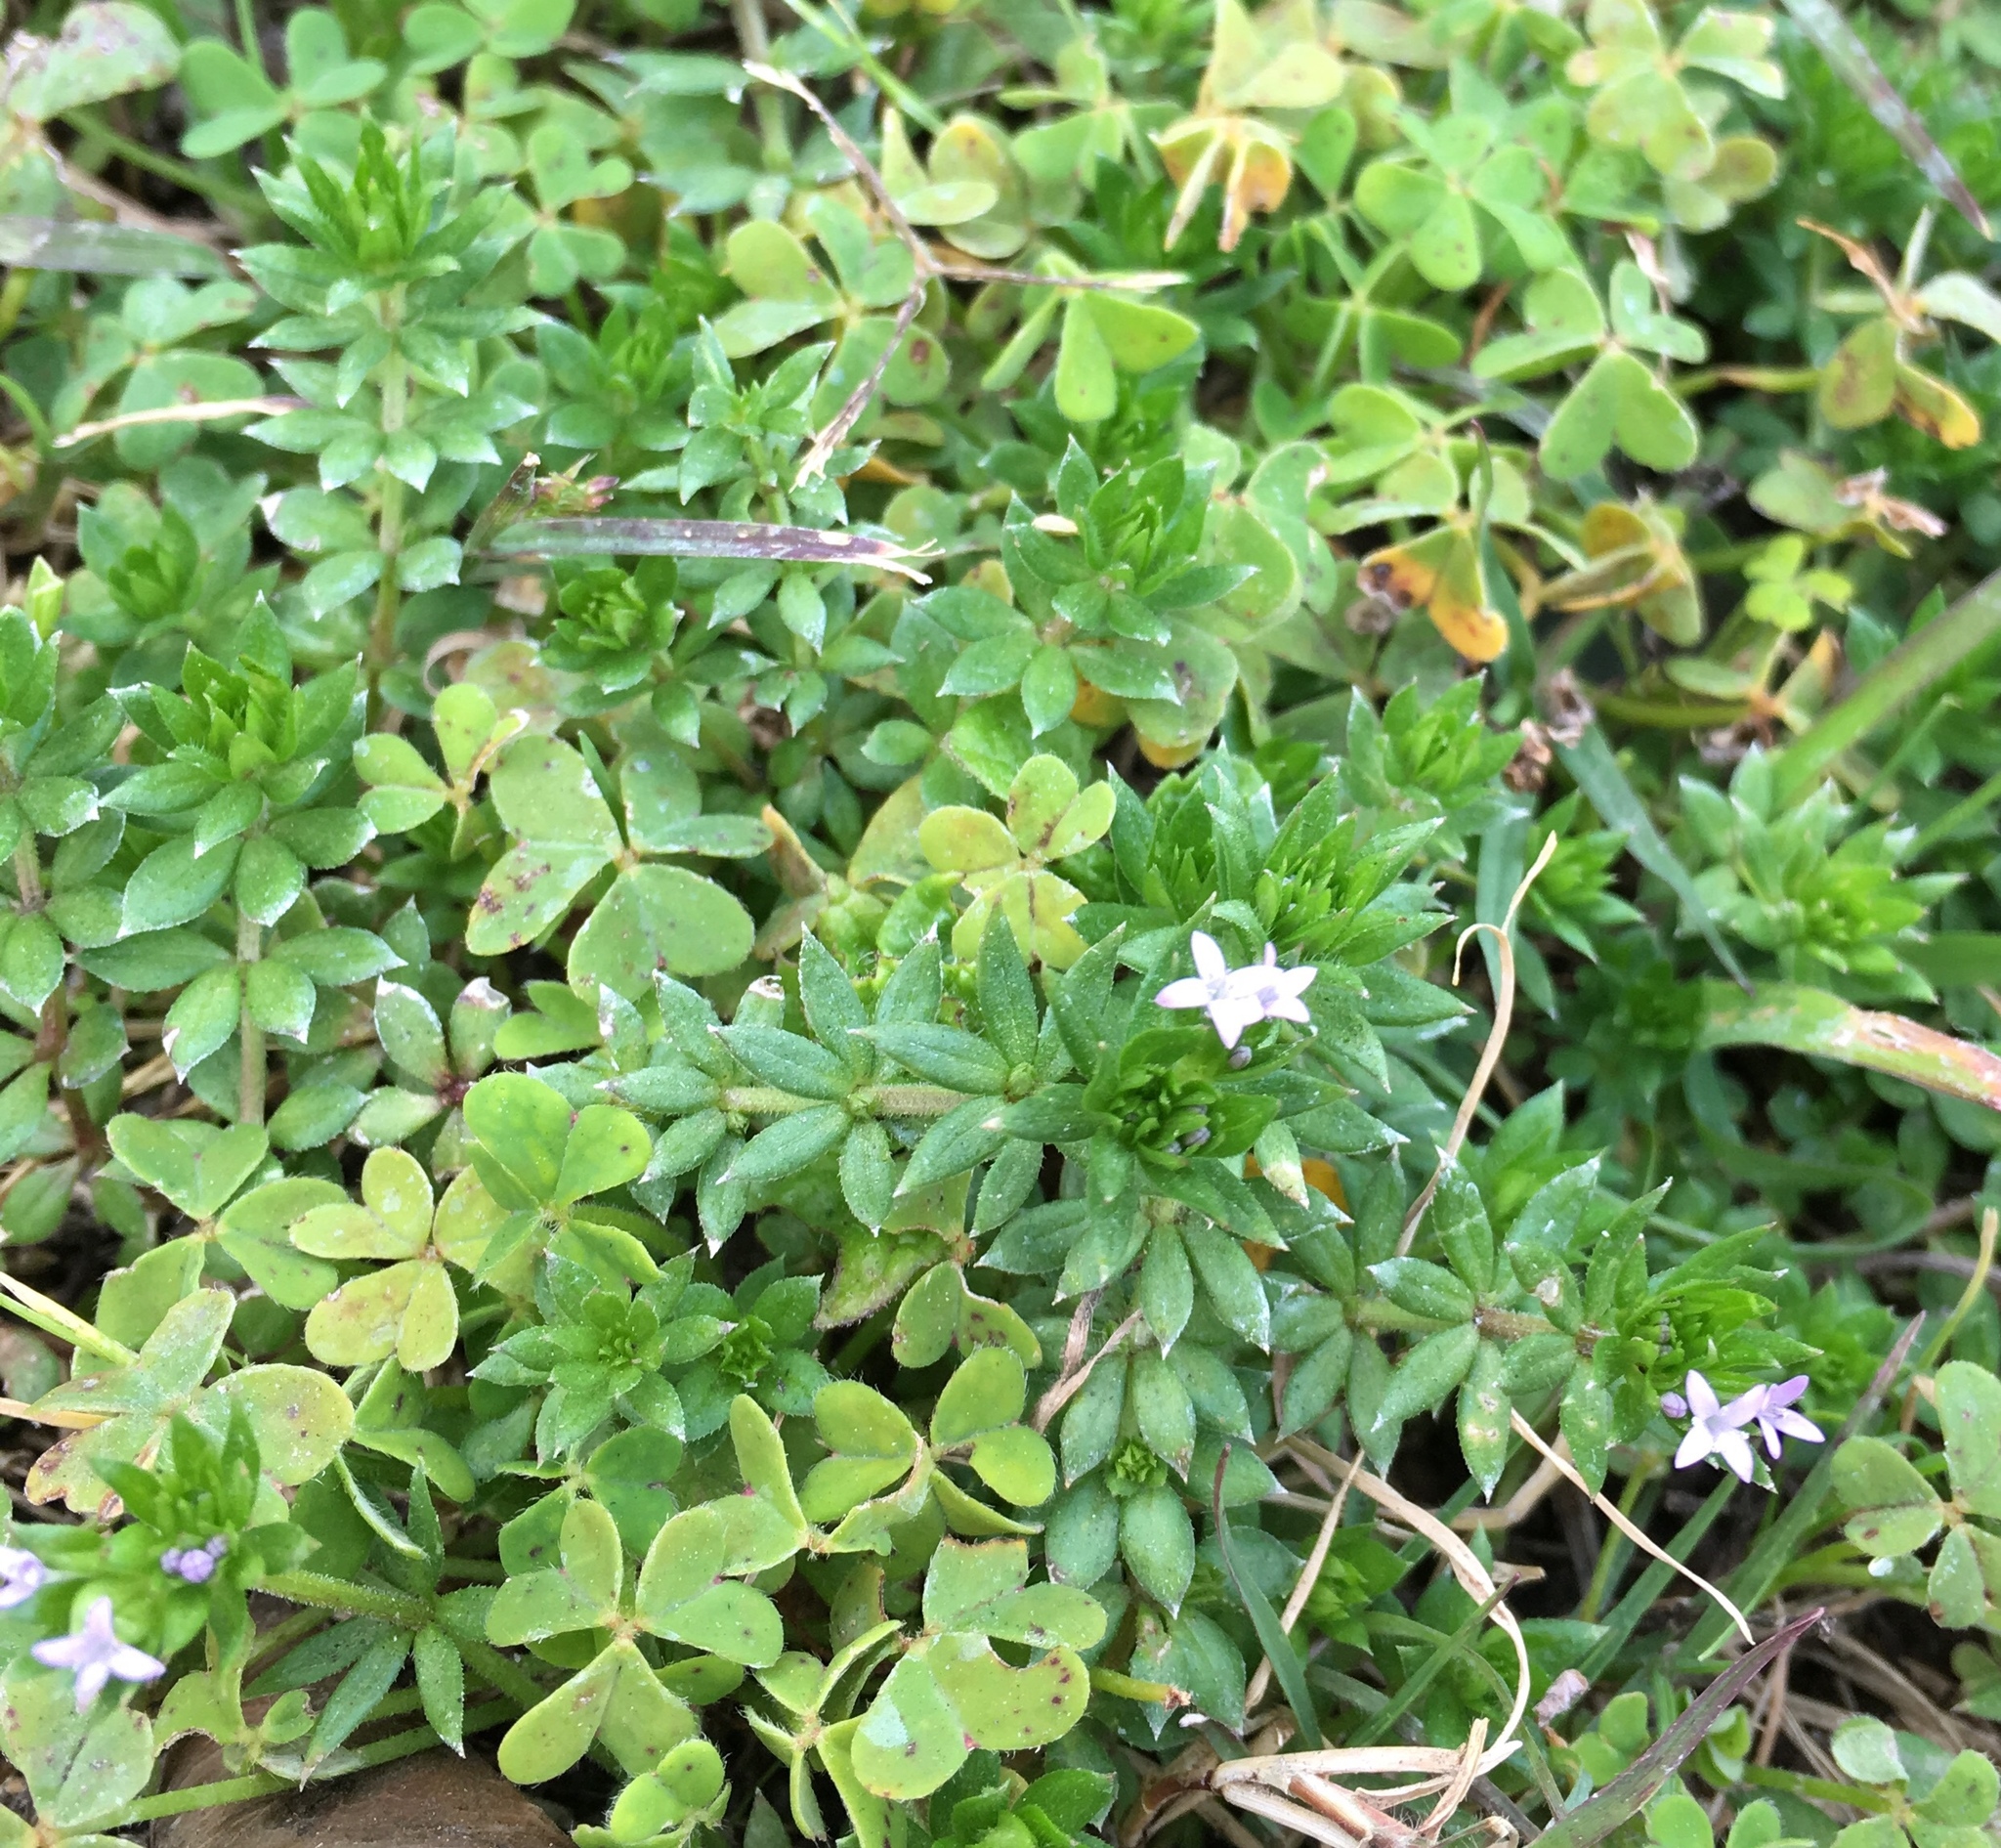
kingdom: Plantae
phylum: Tracheophyta
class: Magnoliopsida
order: Gentianales
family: Rubiaceae
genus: Sherardia
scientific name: Sherardia arvensis
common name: Field madder
